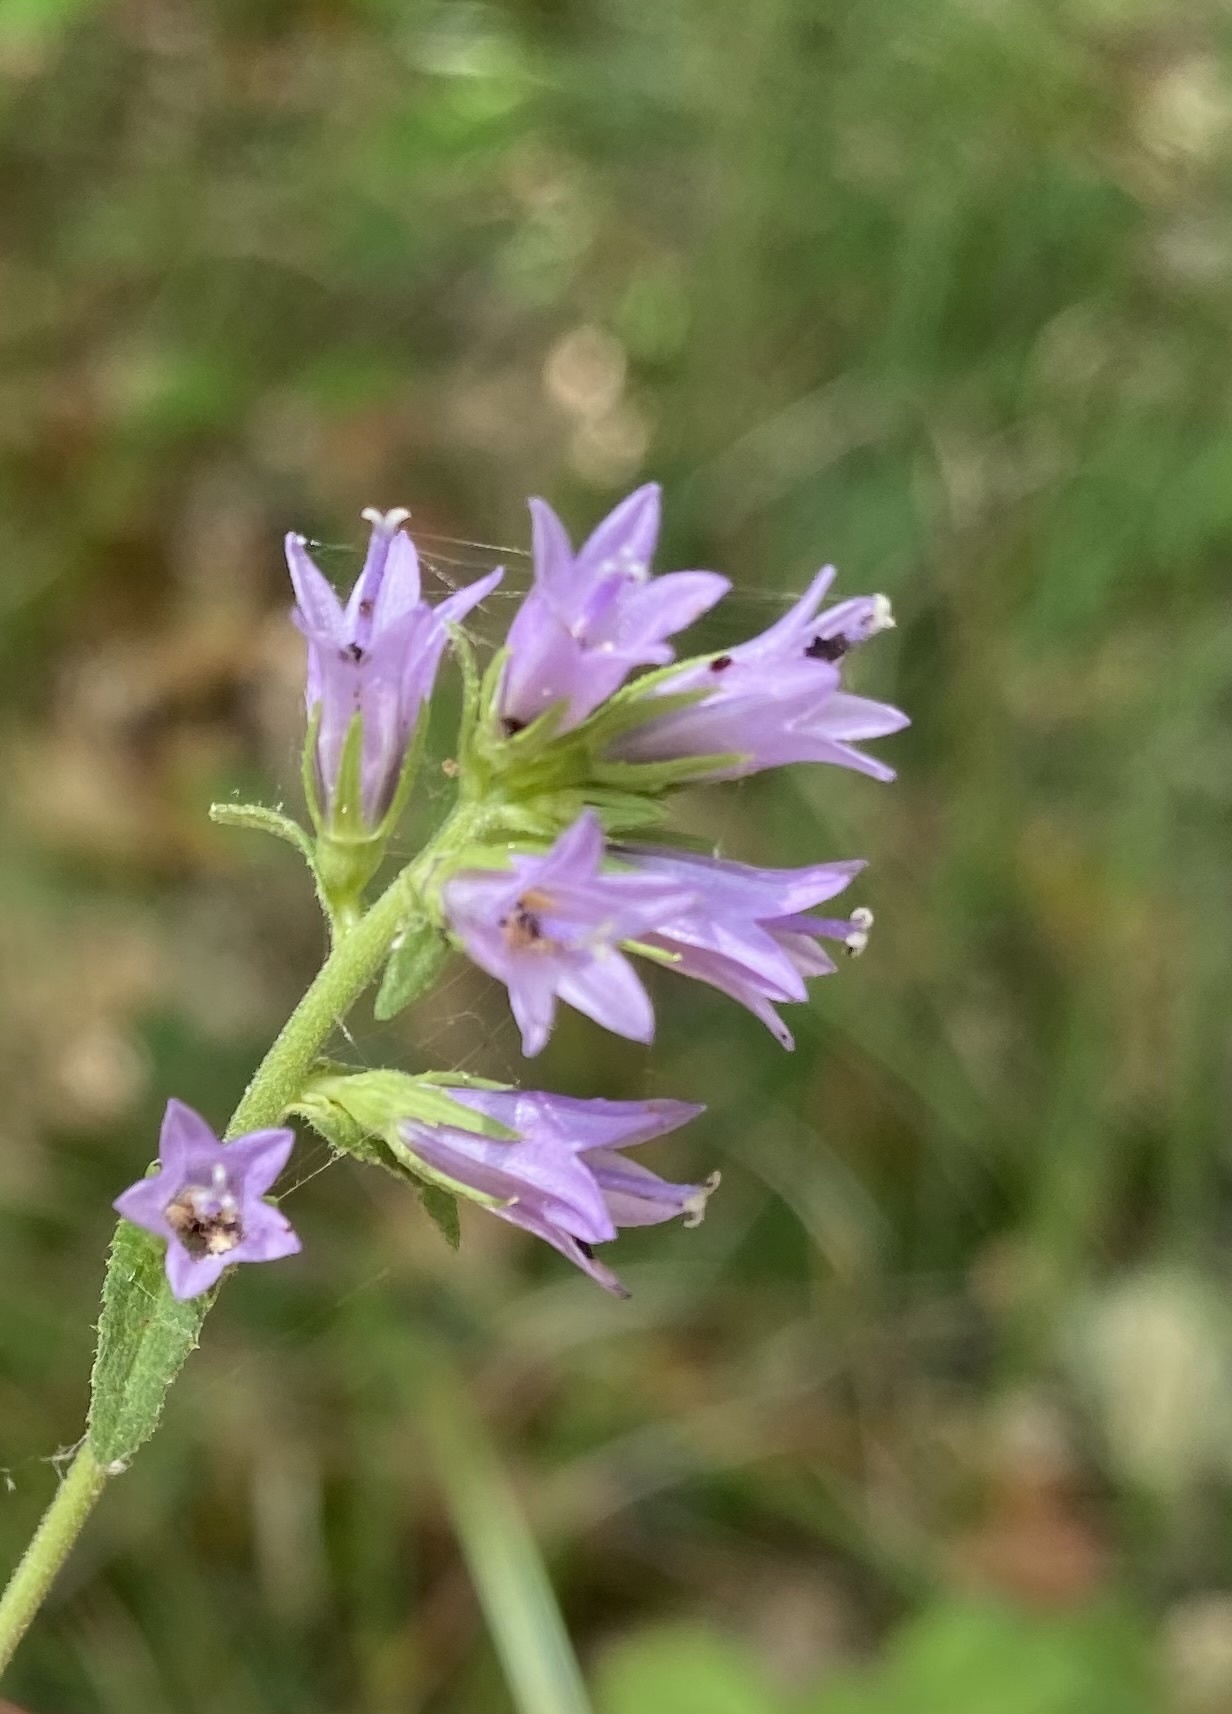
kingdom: Plantae
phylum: Tracheophyta
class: Magnoliopsida
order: Asterales
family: Campanulaceae
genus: Campanula
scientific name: Campanula bononiensis
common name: Pale bellflower
